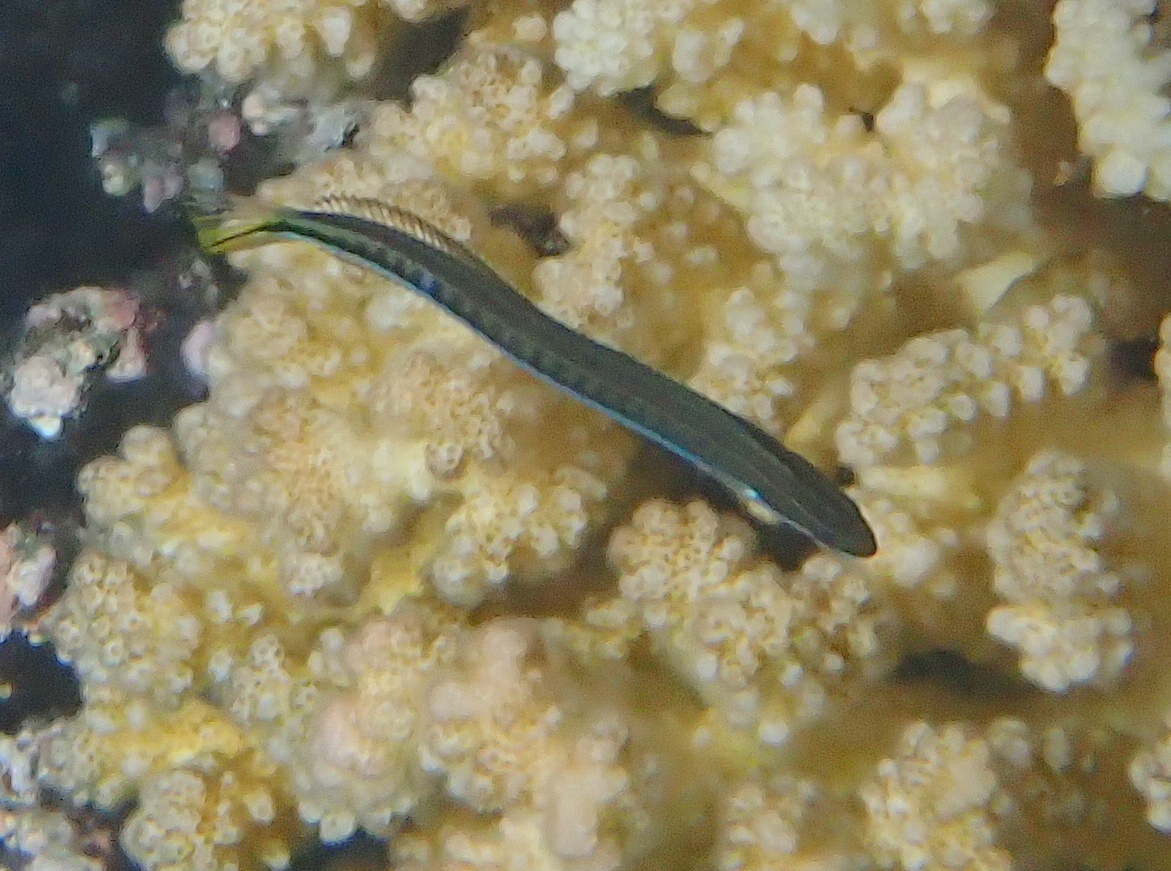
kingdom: Animalia
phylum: Chordata
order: Perciformes
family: Blenniidae
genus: Plagiotremus
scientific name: Plagiotremus tapeinosoma
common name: Hit and run blenny
